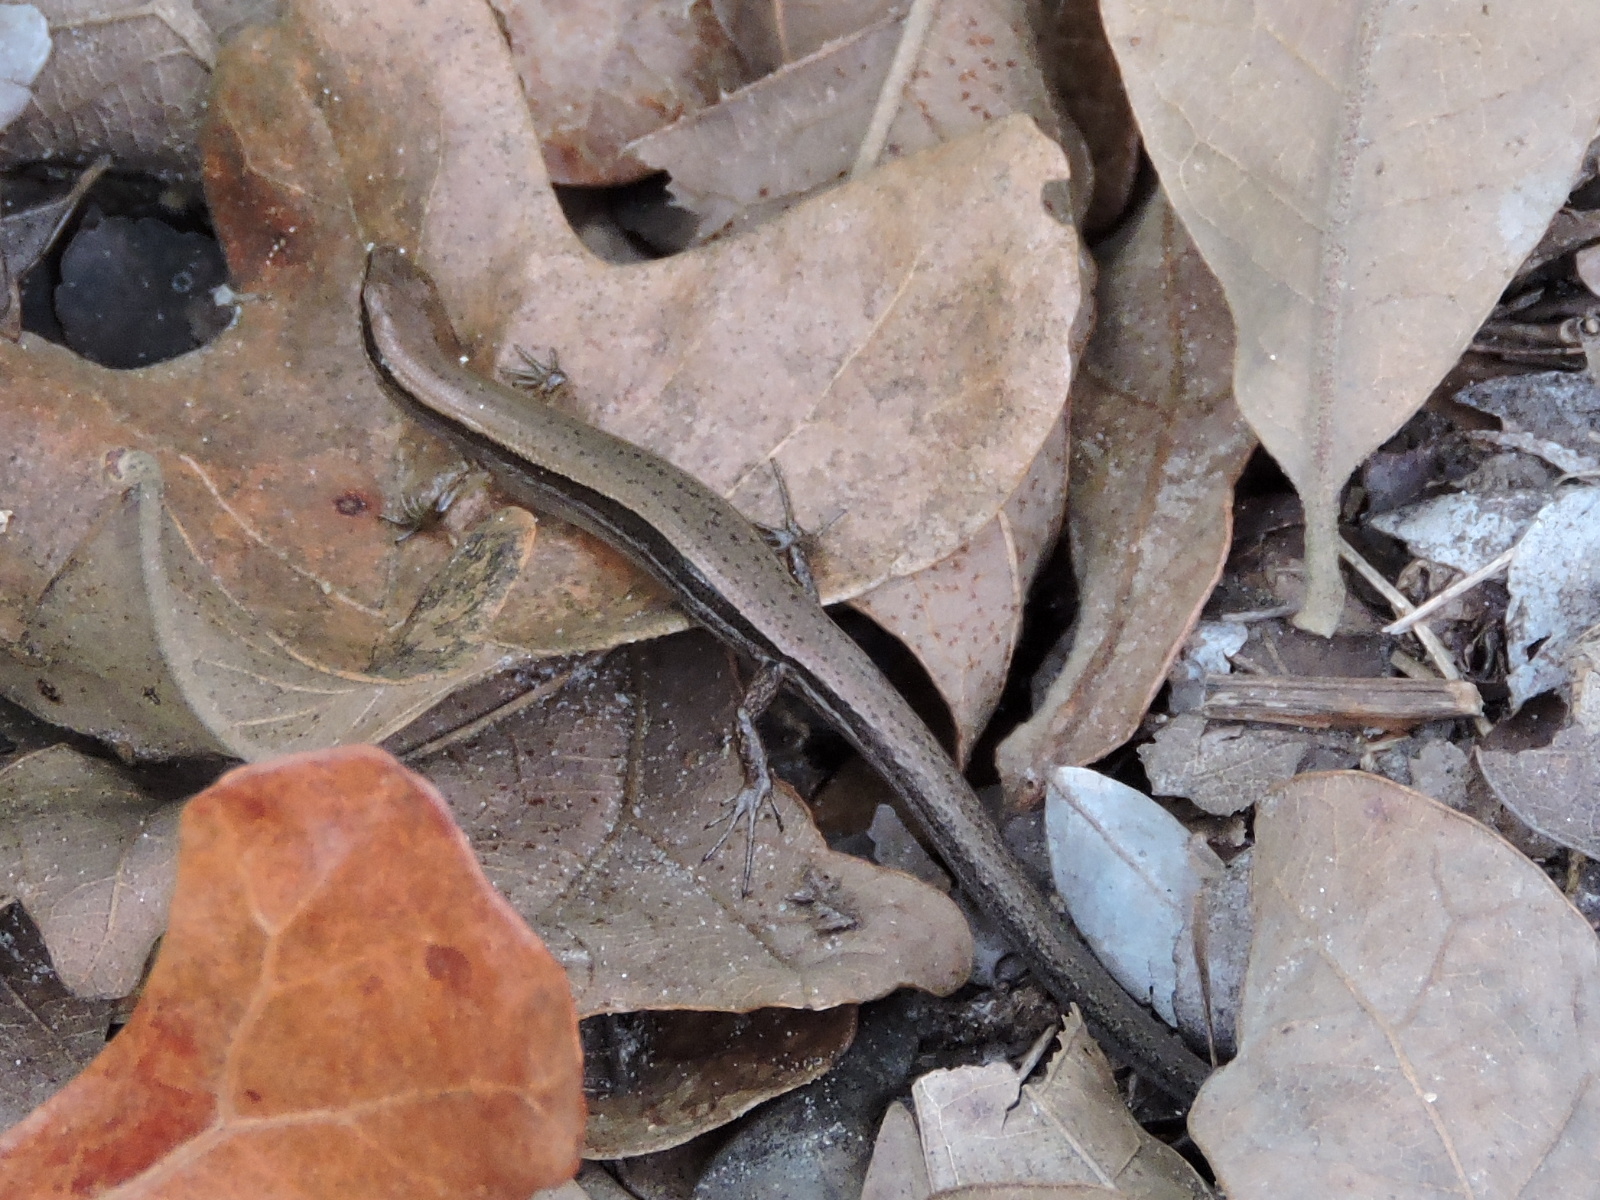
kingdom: Animalia
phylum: Chordata
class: Squamata
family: Scincidae
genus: Scincella
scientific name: Scincella lateralis
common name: Ground skink
